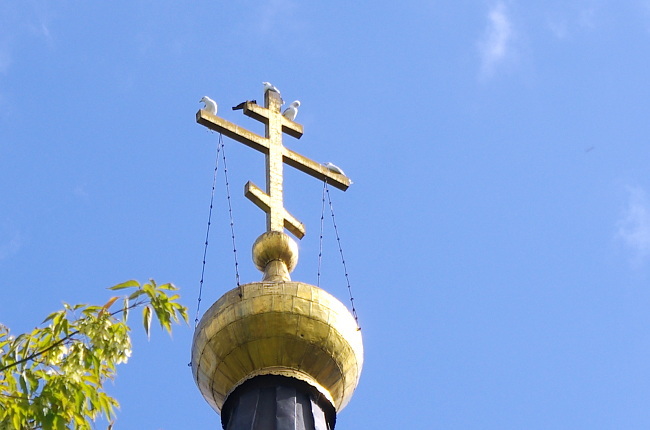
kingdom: Animalia
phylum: Chordata
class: Aves
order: Charadriiformes
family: Laridae
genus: Larus
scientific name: Larus canus
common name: Mew gull
